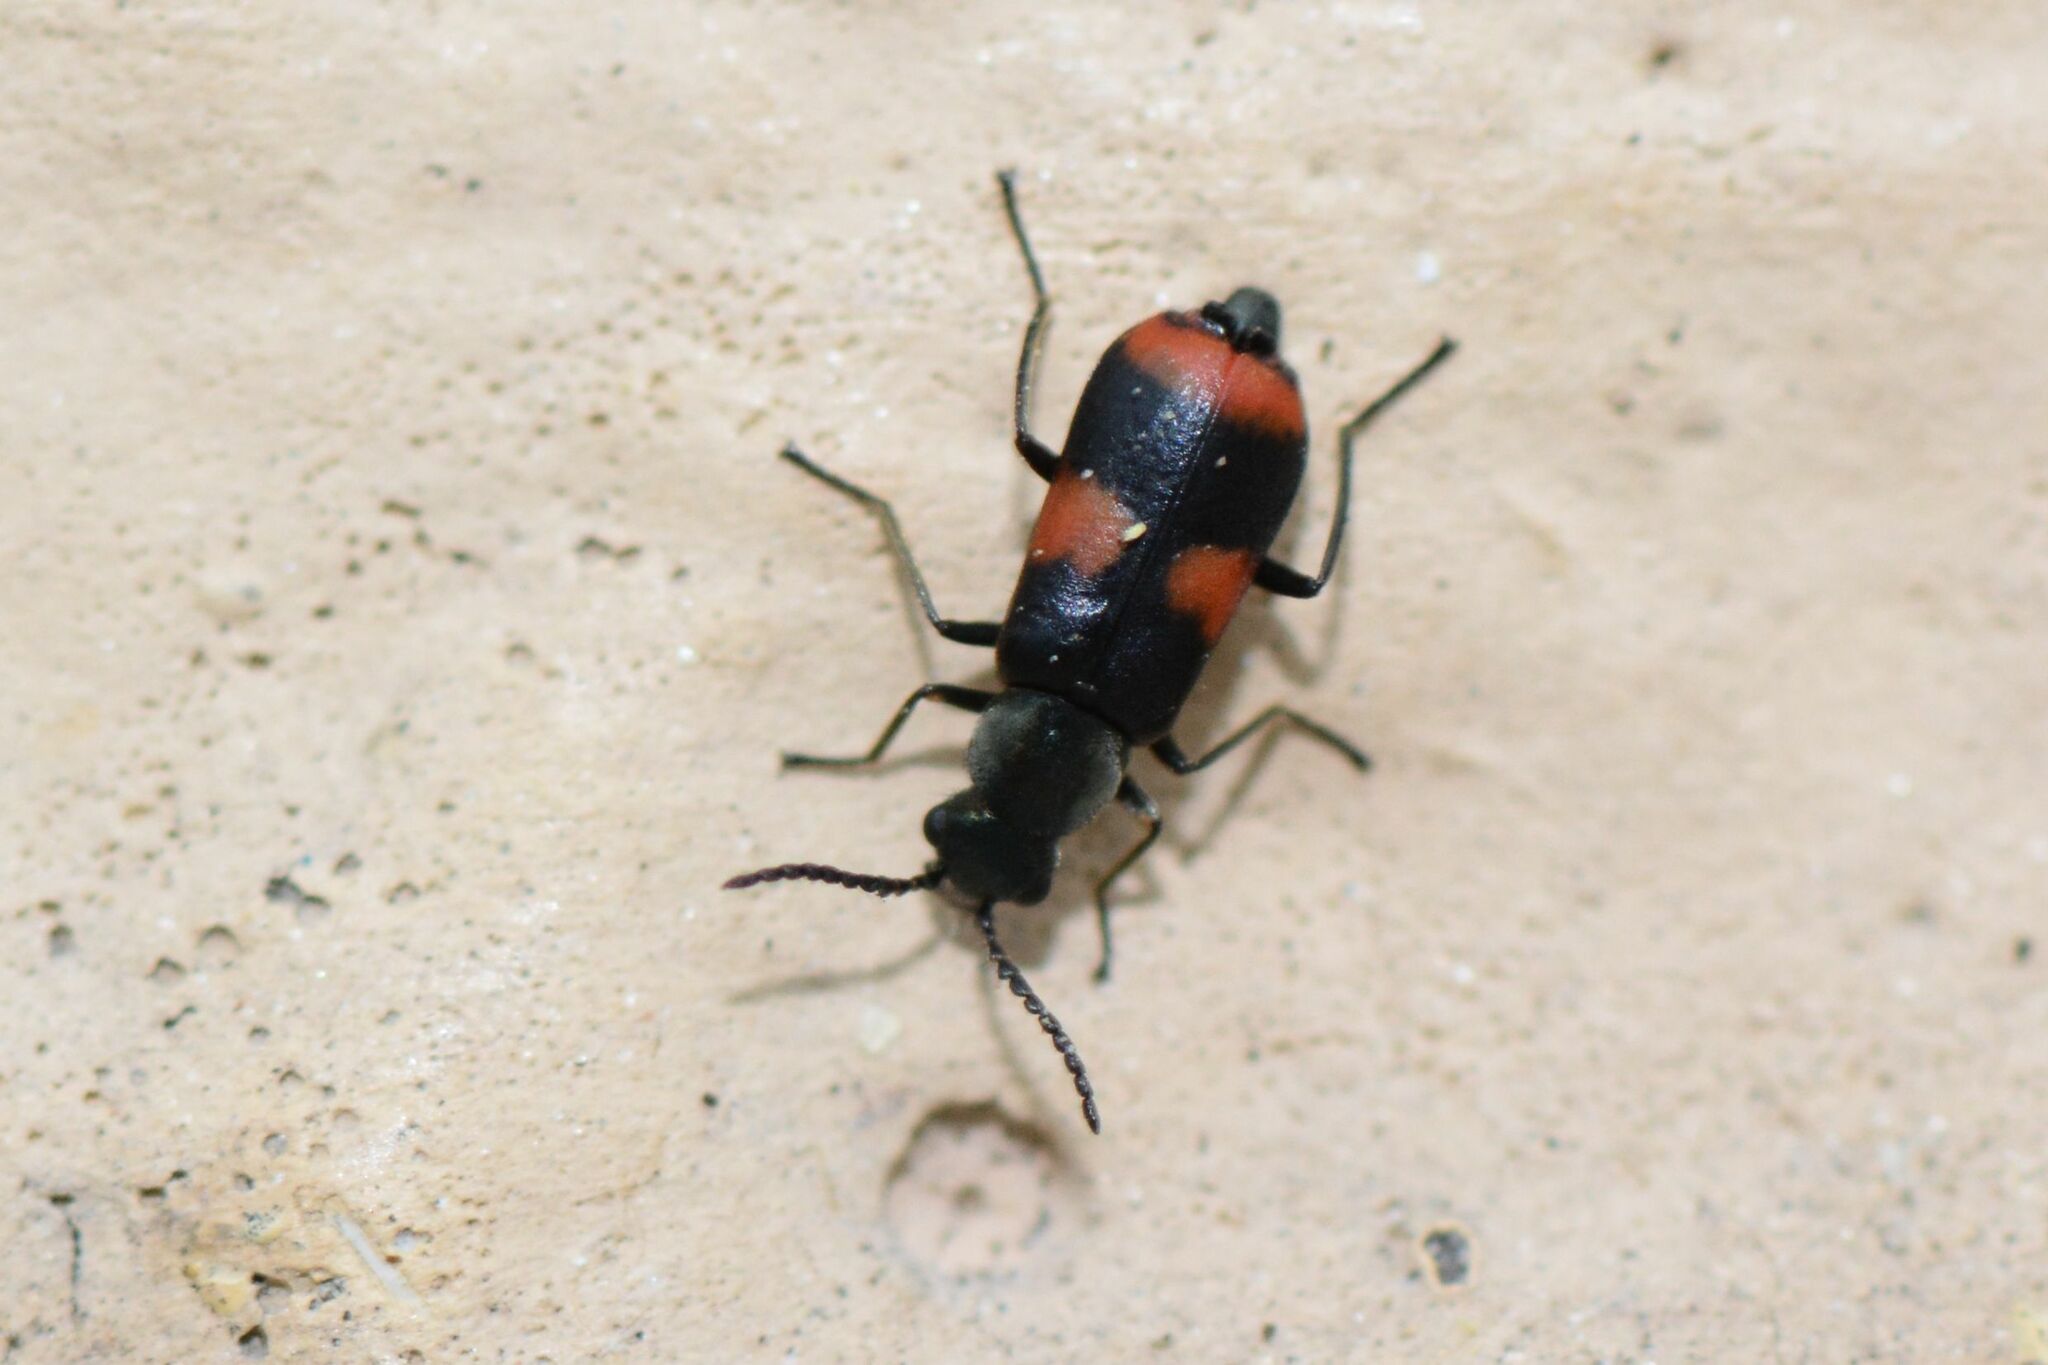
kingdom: Animalia
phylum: Arthropoda
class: Insecta
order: Coleoptera
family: Melyridae
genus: Anthocomus
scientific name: Anthocomus fasciatus
